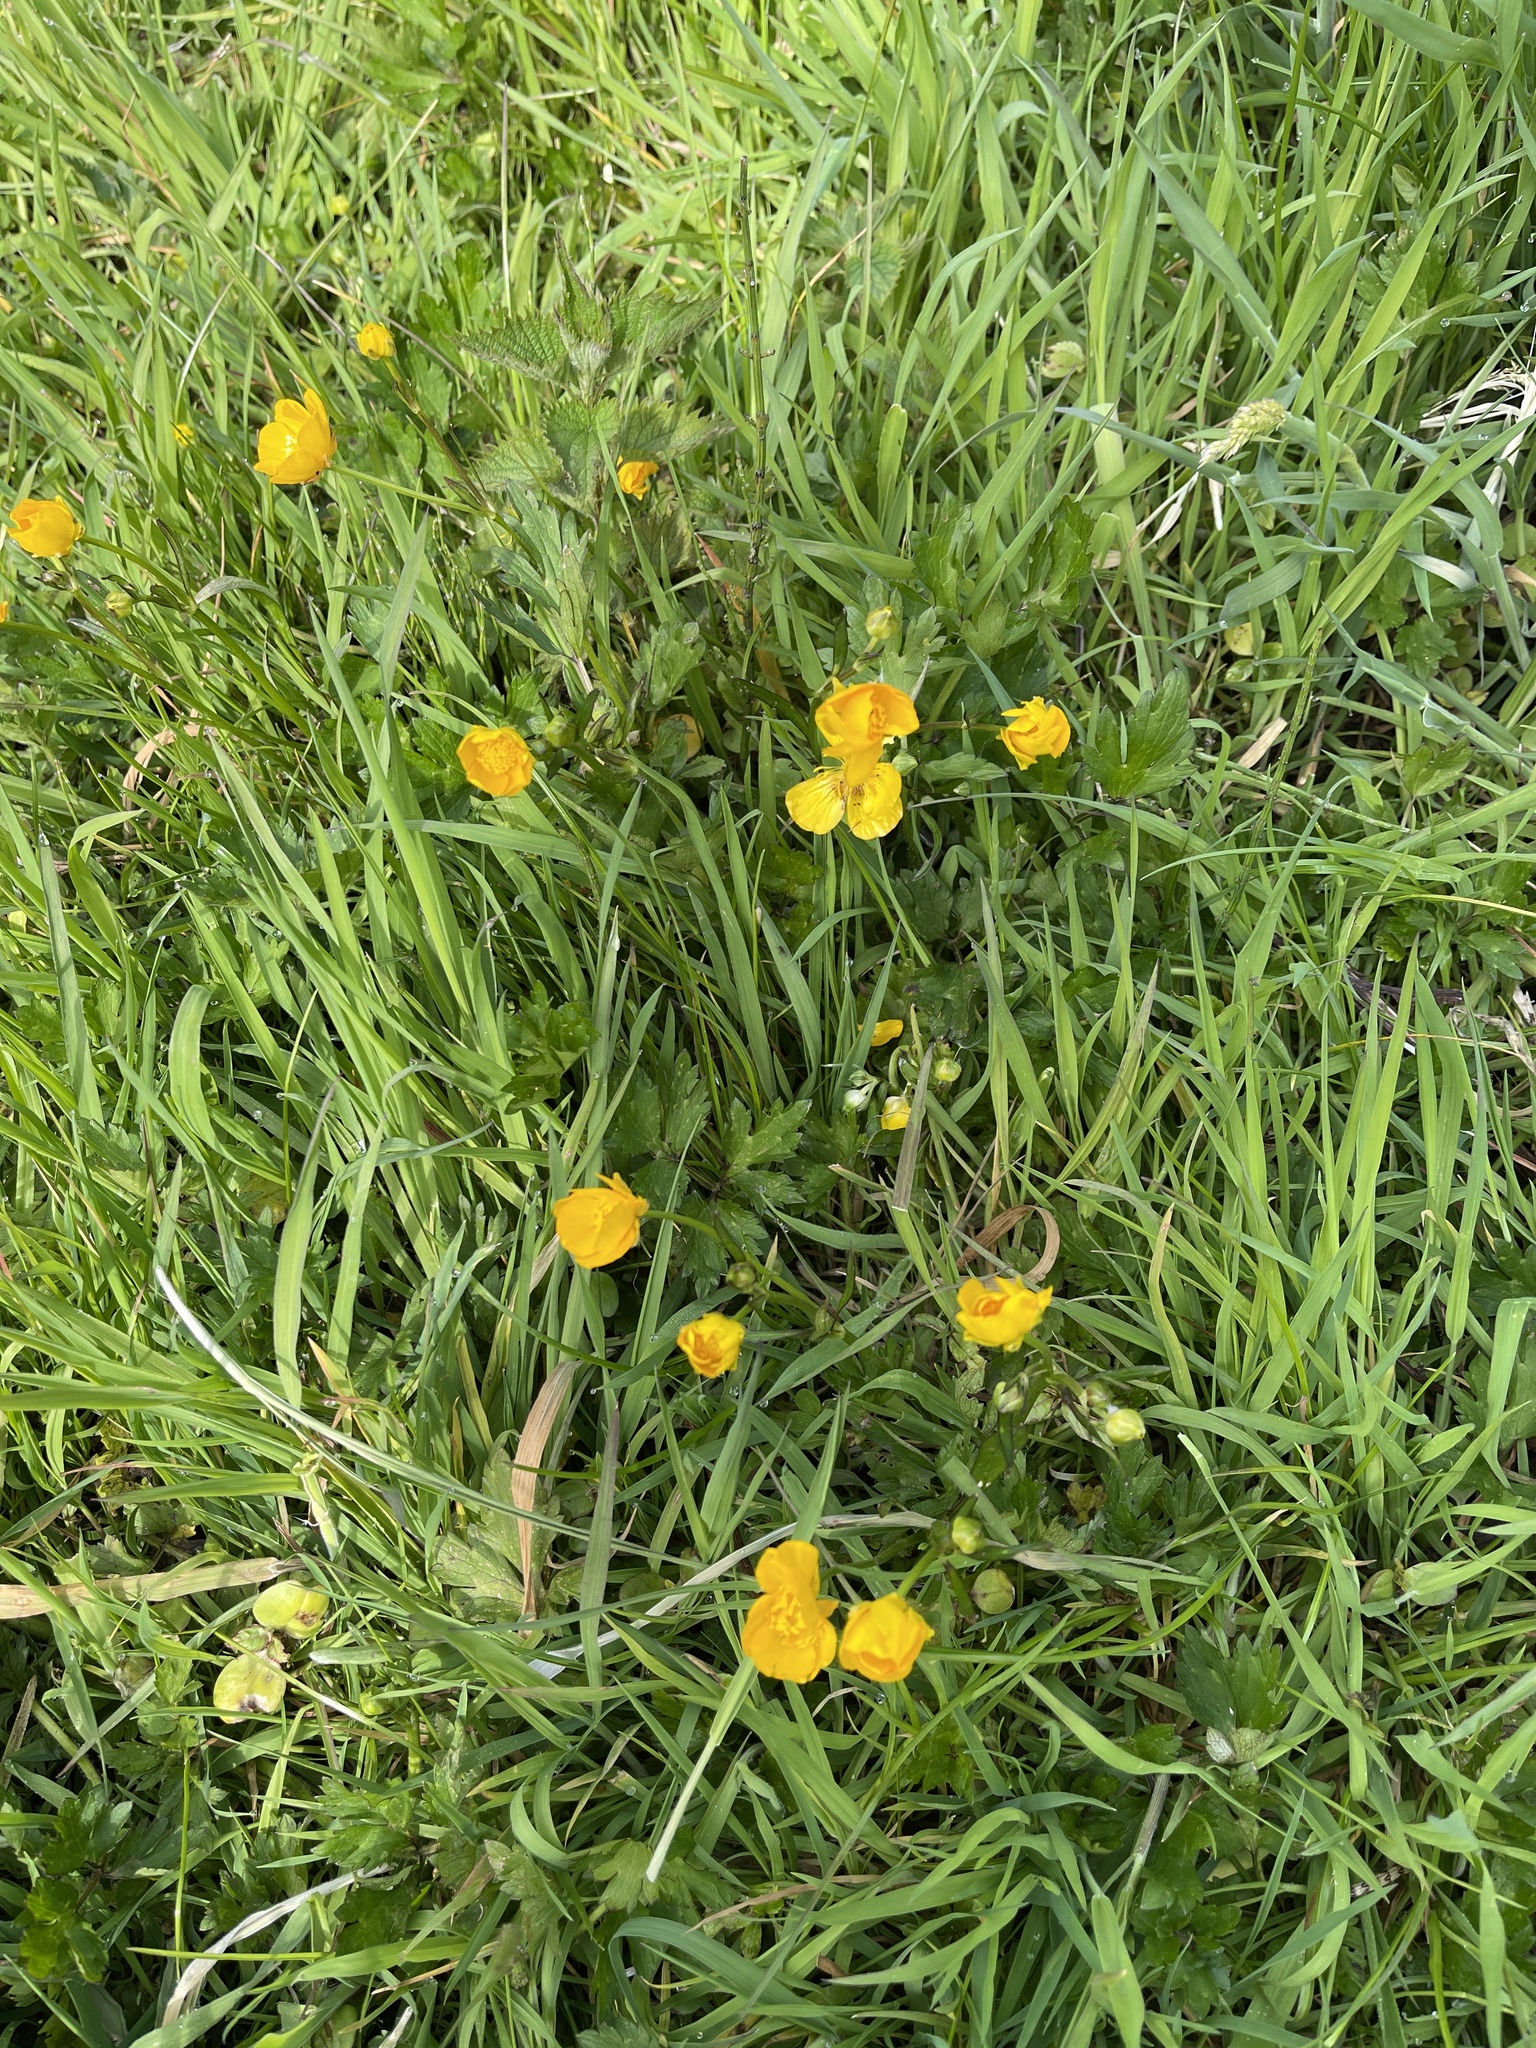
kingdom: Plantae
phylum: Tracheophyta
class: Magnoliopsida
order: Ranunculales
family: Ranunculaceae
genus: Ranunculus
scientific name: Ranunculus repens
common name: Creeping buttercup
